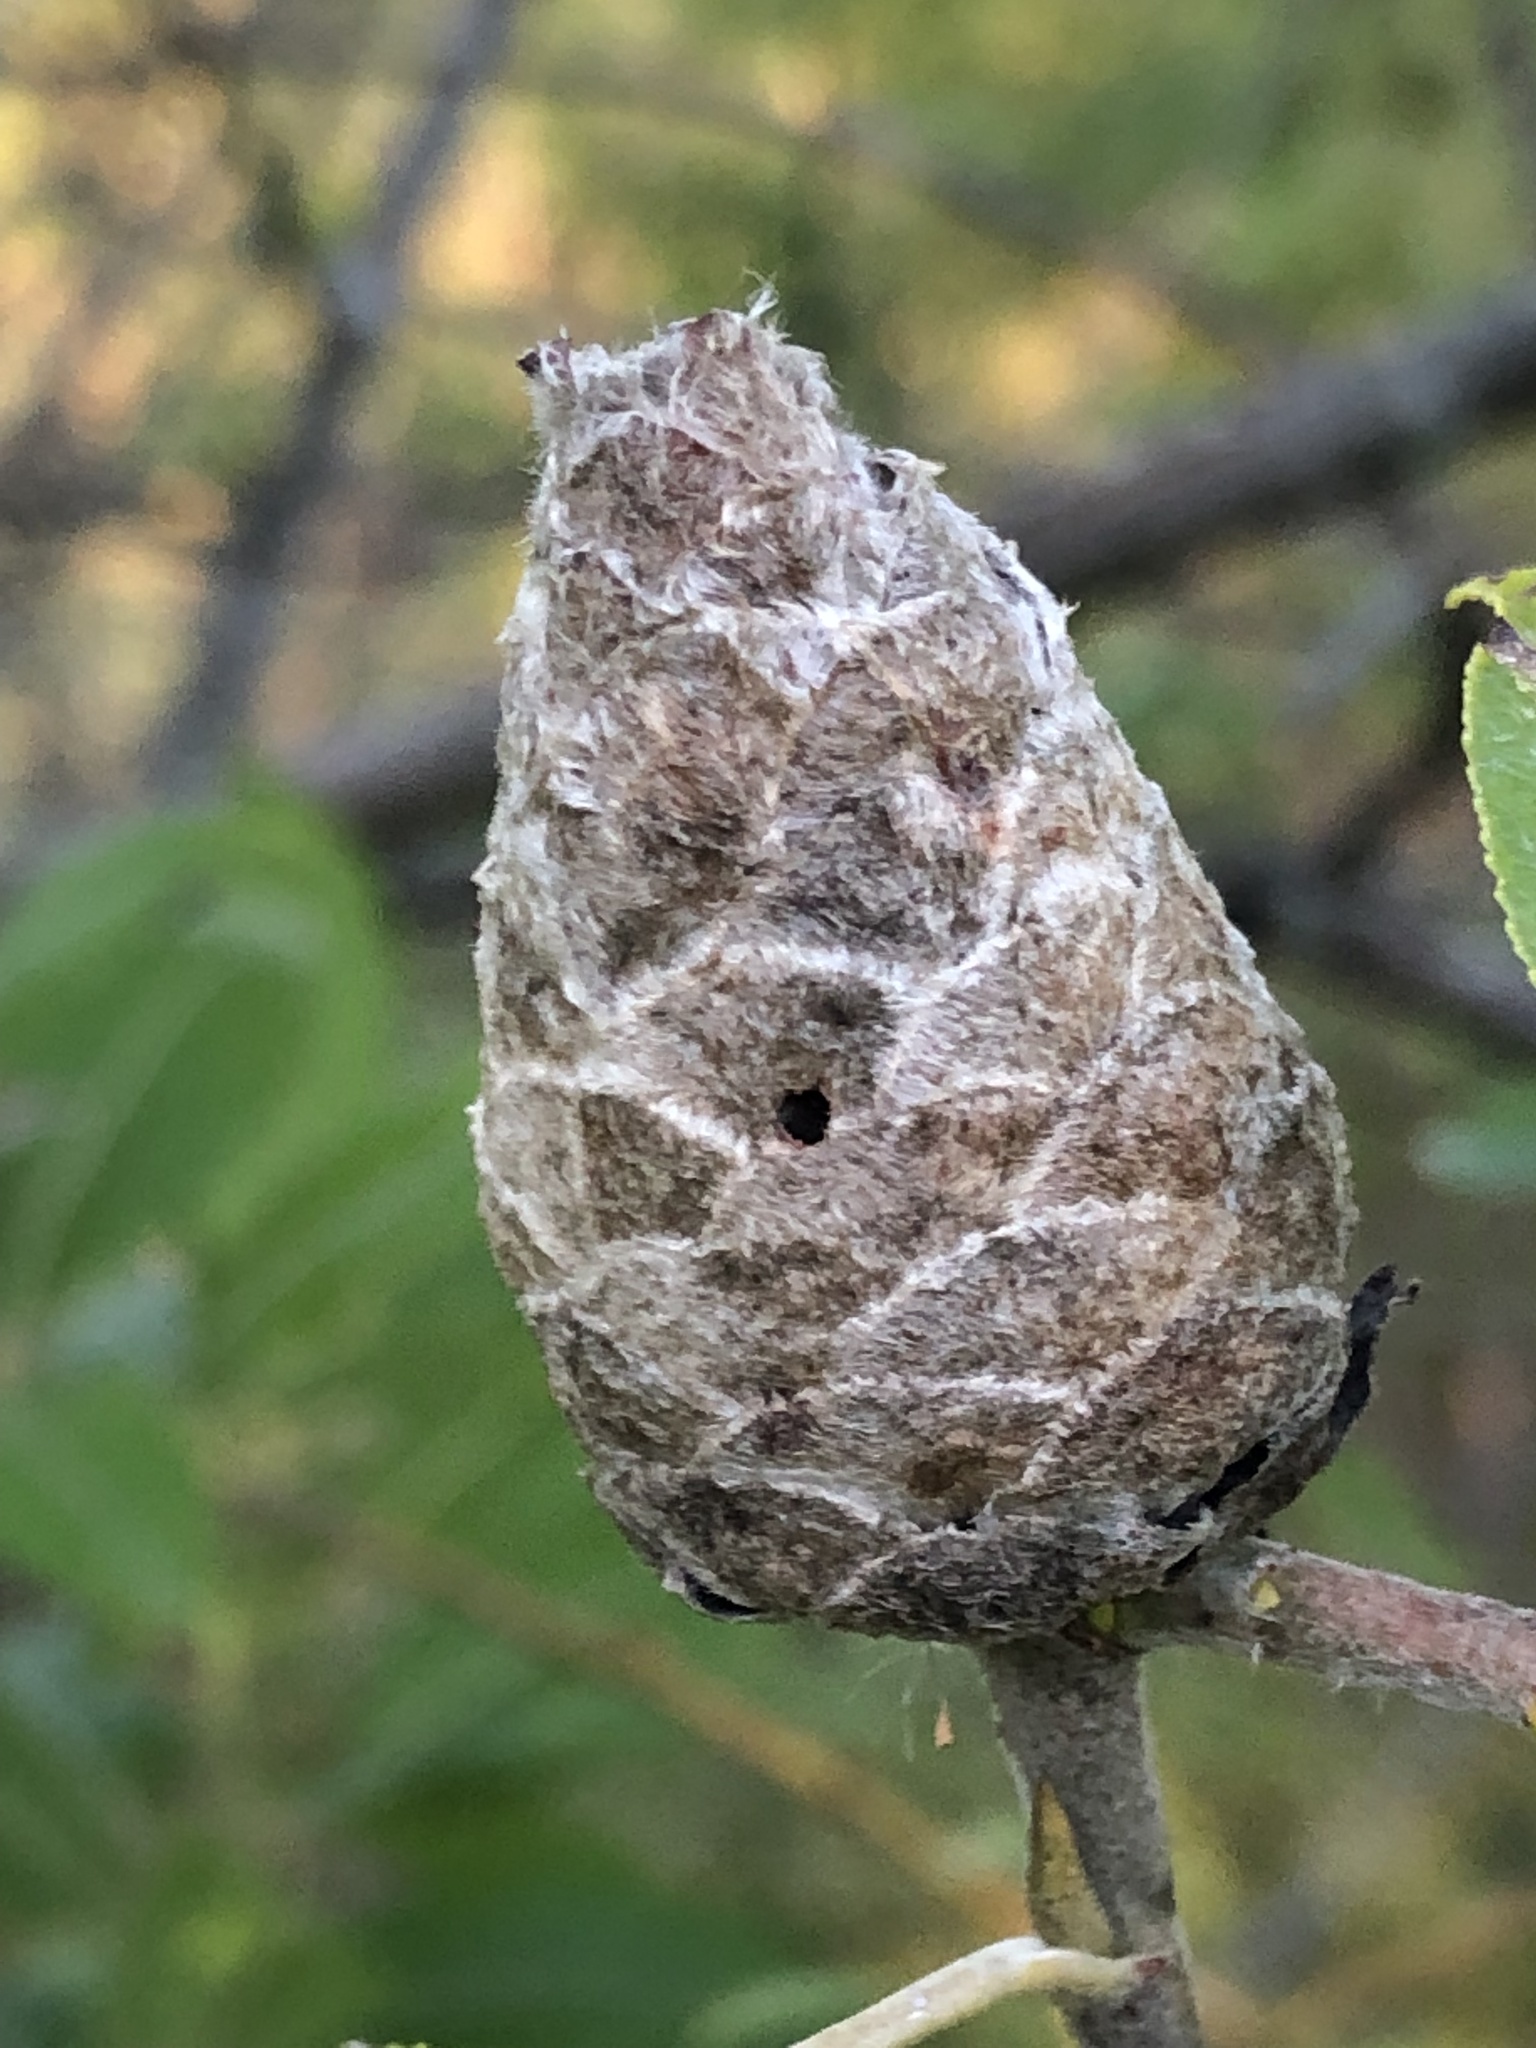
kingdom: Animalia
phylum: Arthropoda
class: Insecta
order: Diptera
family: Cecidomyiidae
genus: Rabdophaga
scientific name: Rabdophaga strobiloides
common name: Willow pinecone gall midge
